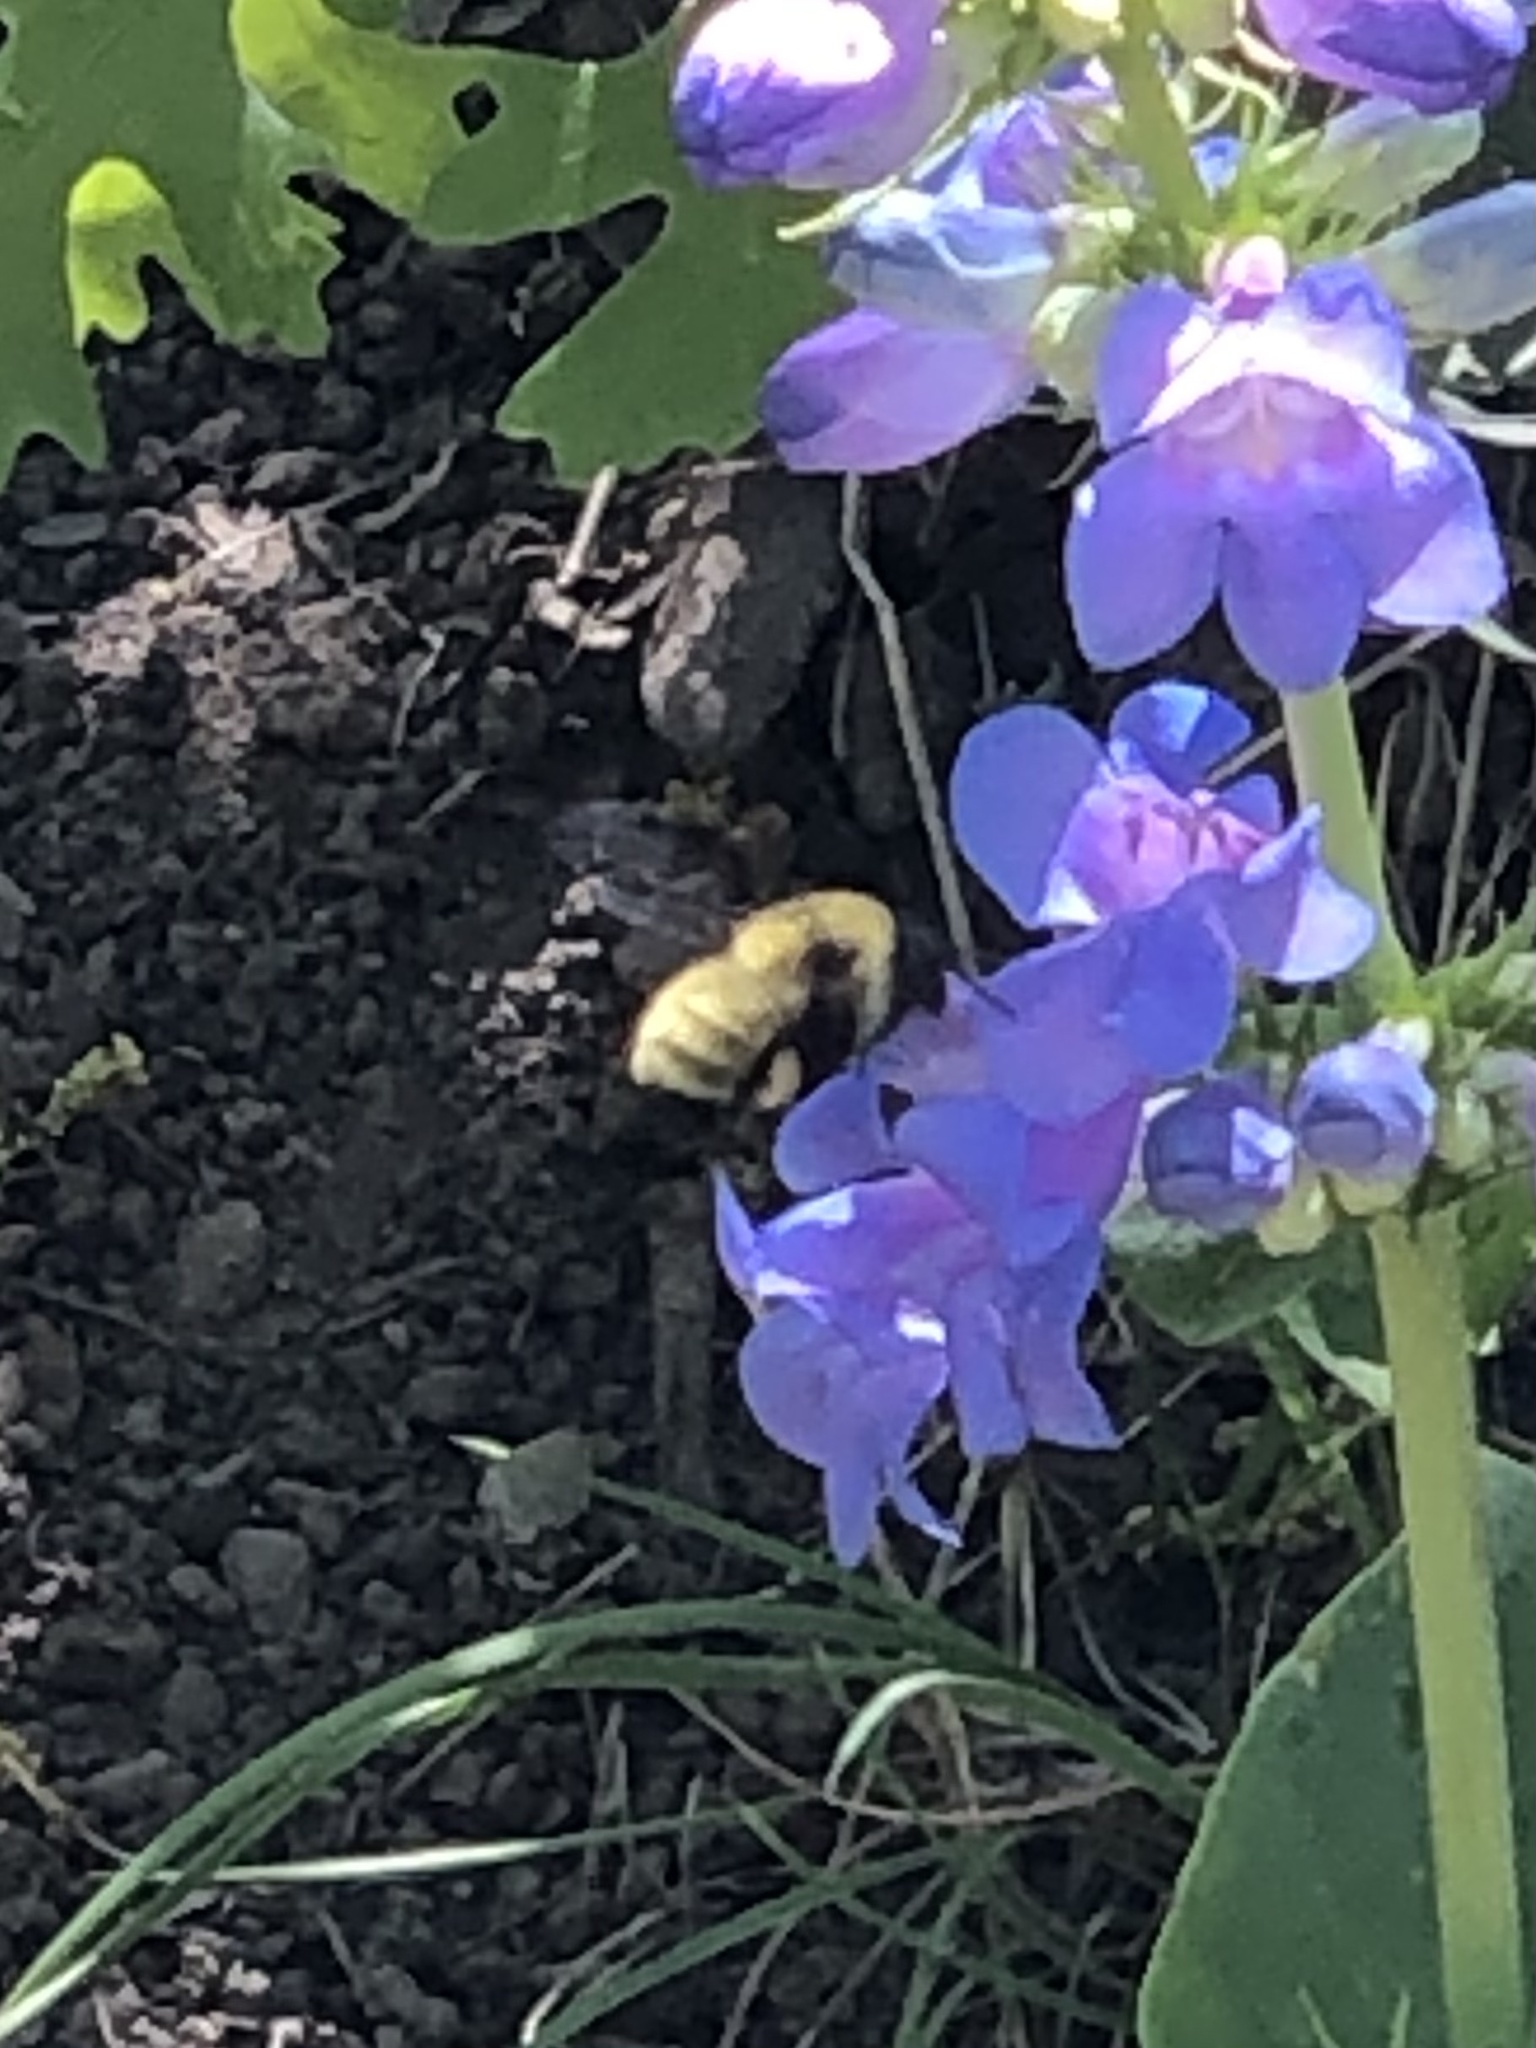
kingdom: Animalia
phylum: Arthropoda
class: Insecta
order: Hymenoptera
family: Apidae
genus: Bombus
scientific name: Bombus fervidus
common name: Yellow bumble bee
